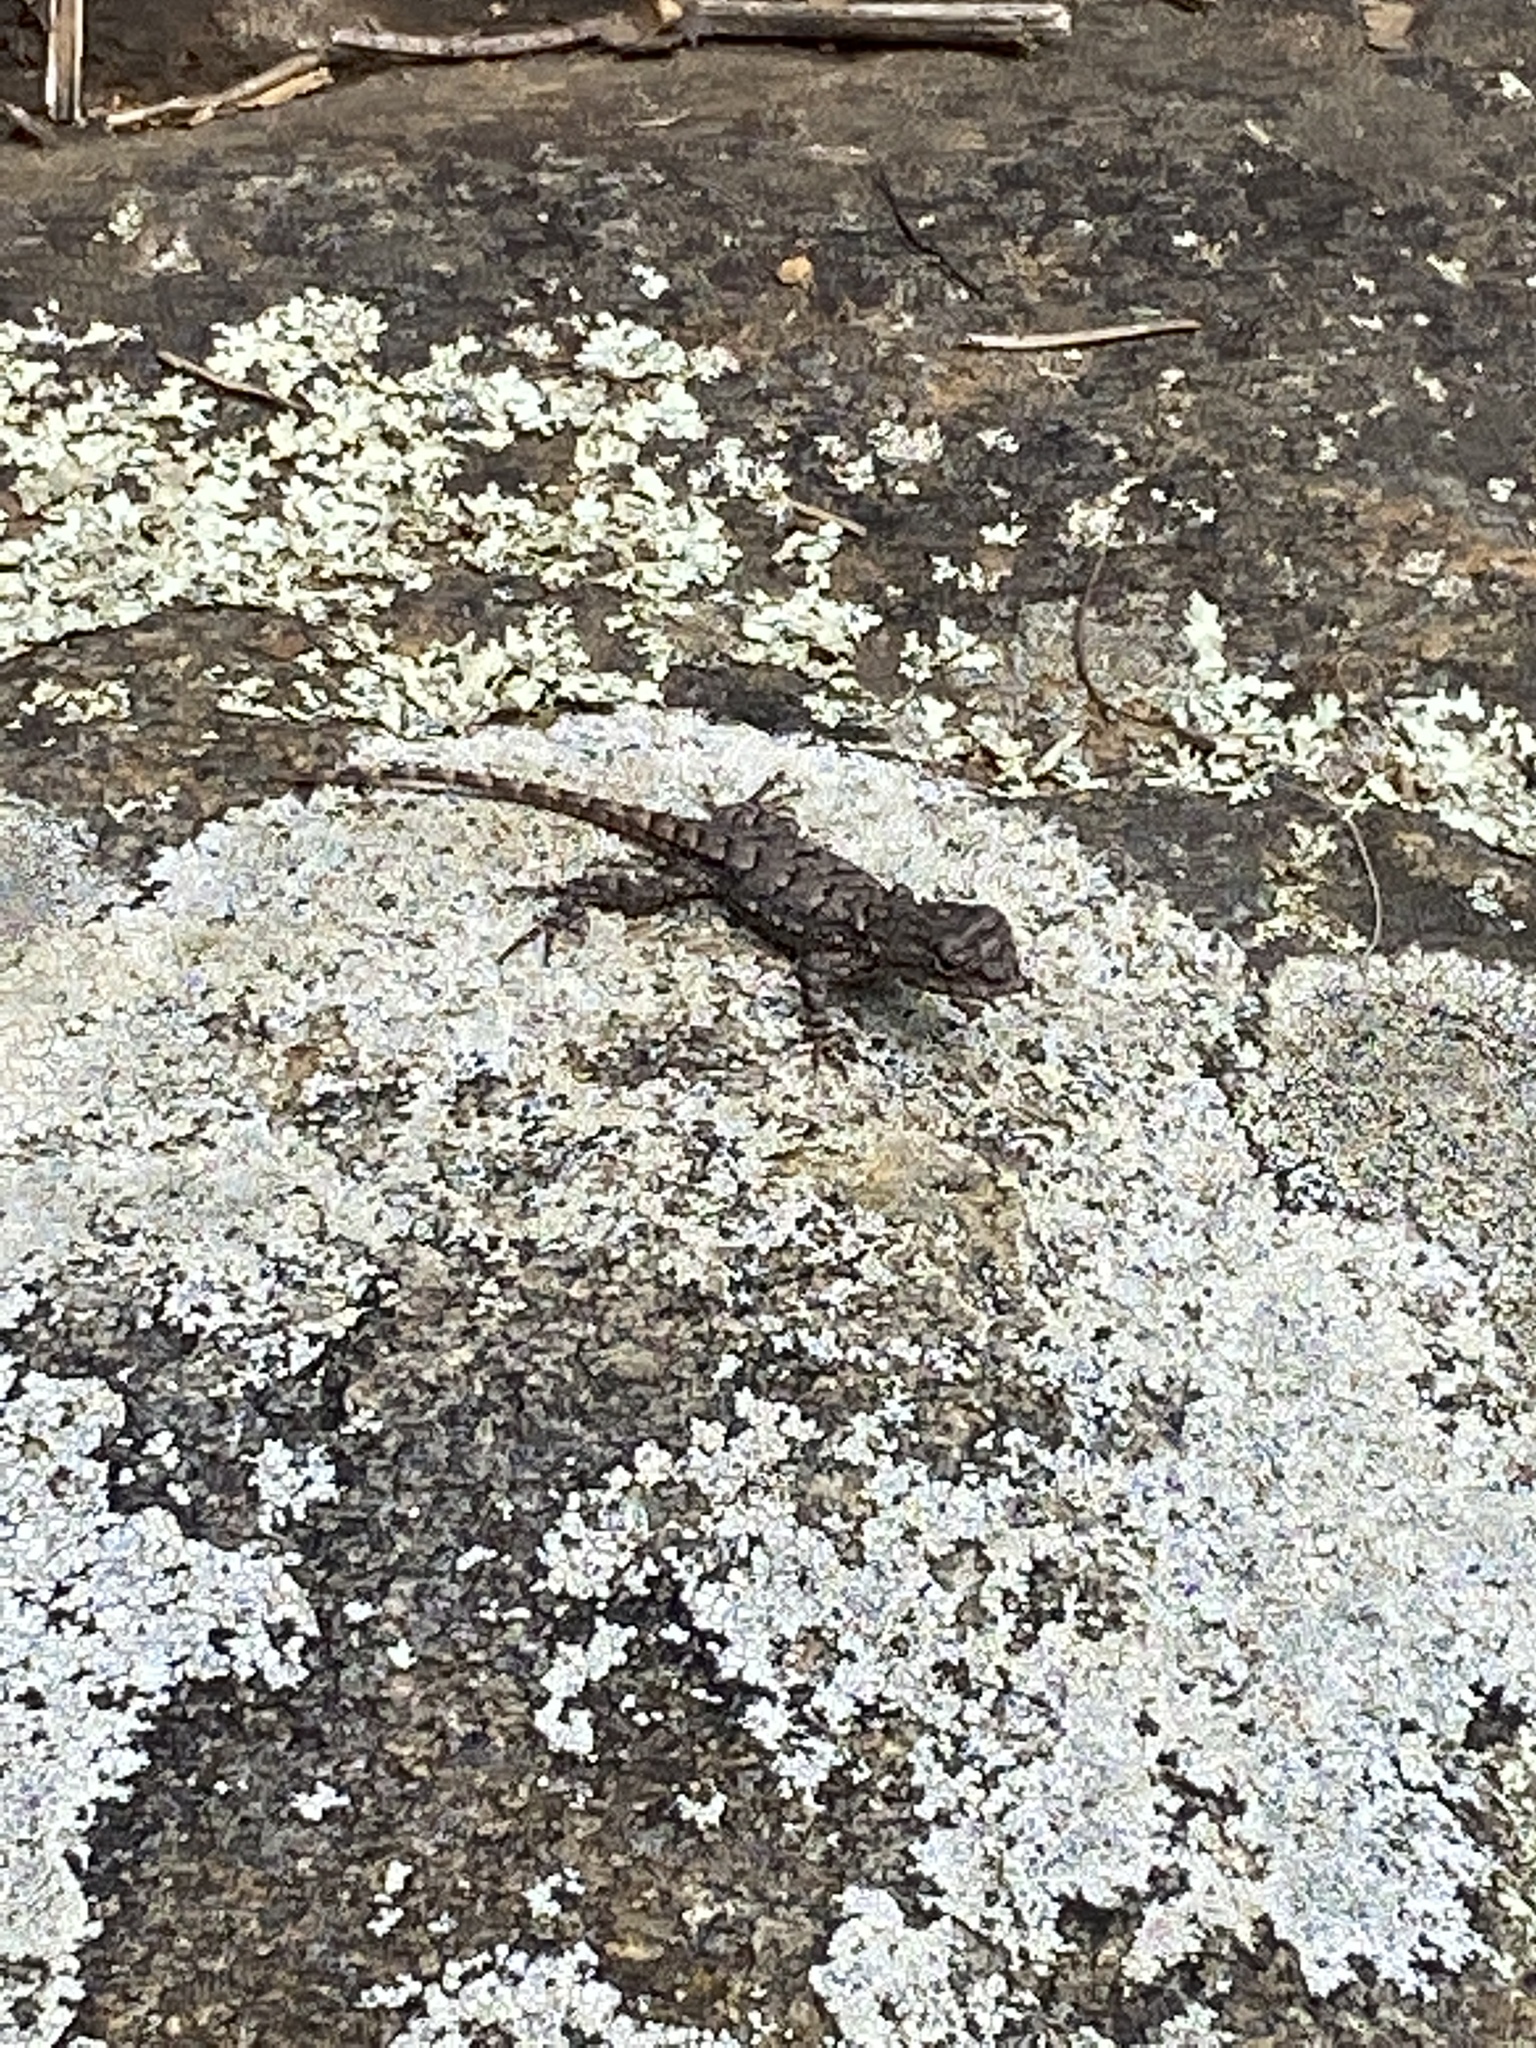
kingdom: Animalia
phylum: Chordata
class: Squamata
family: Phrynosomatidae
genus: Sceloporus
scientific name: Sceloporus undulatus
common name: Eastern fence lizard
